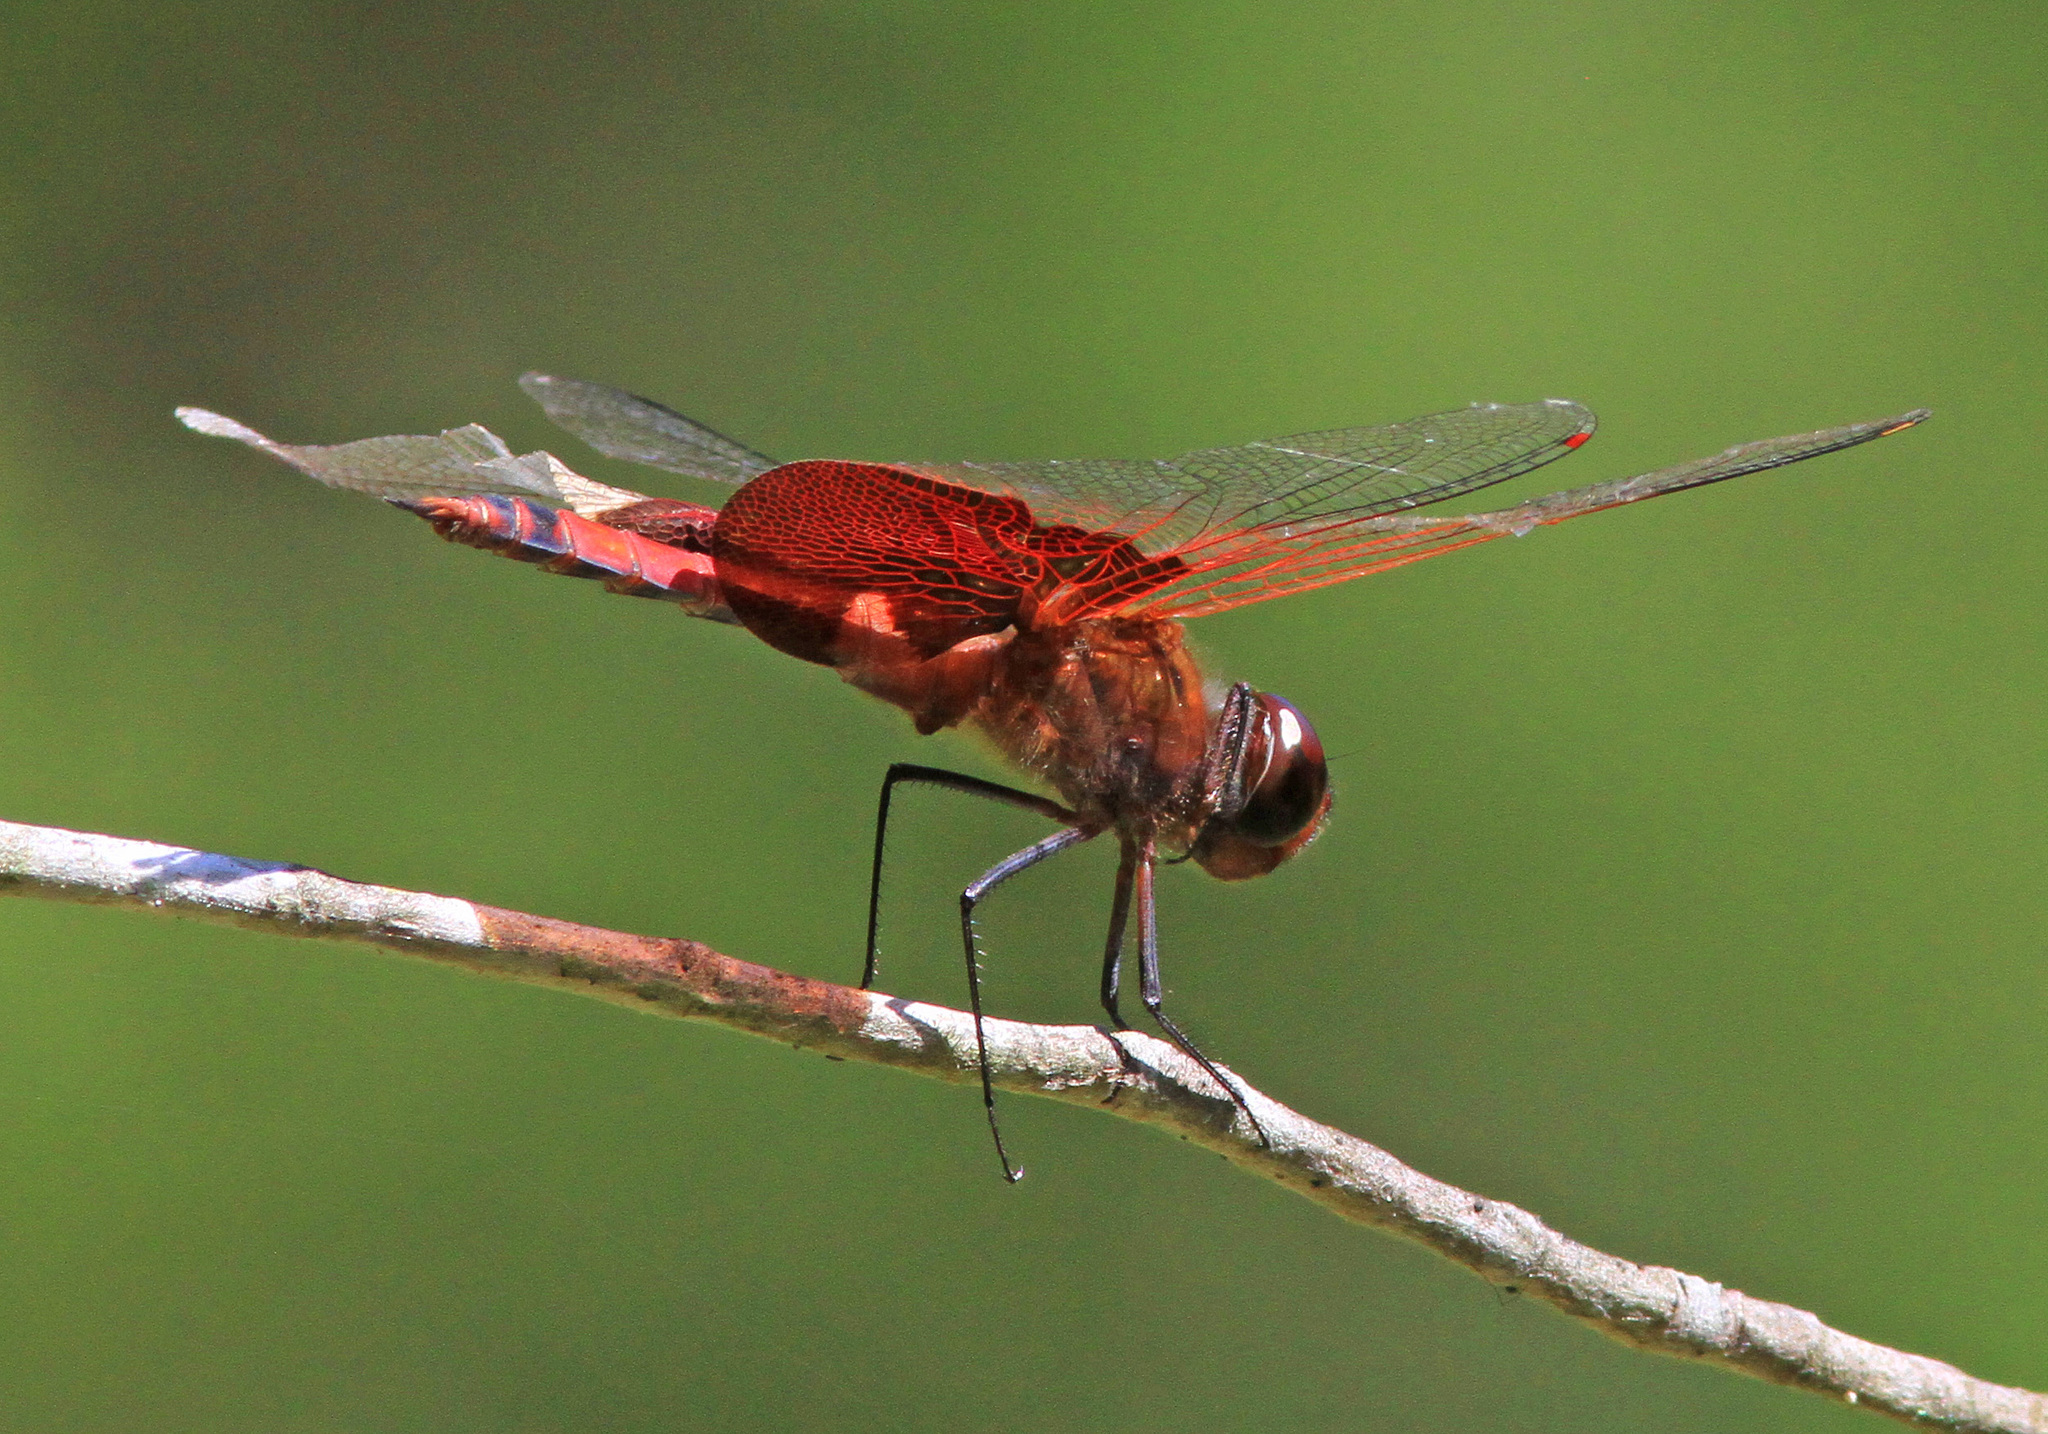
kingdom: Animalia
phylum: Arthropoda
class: Insecta
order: Odonata
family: Libellulidae
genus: Tramea
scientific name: Tramea carolina
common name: Carolina saddlebags
